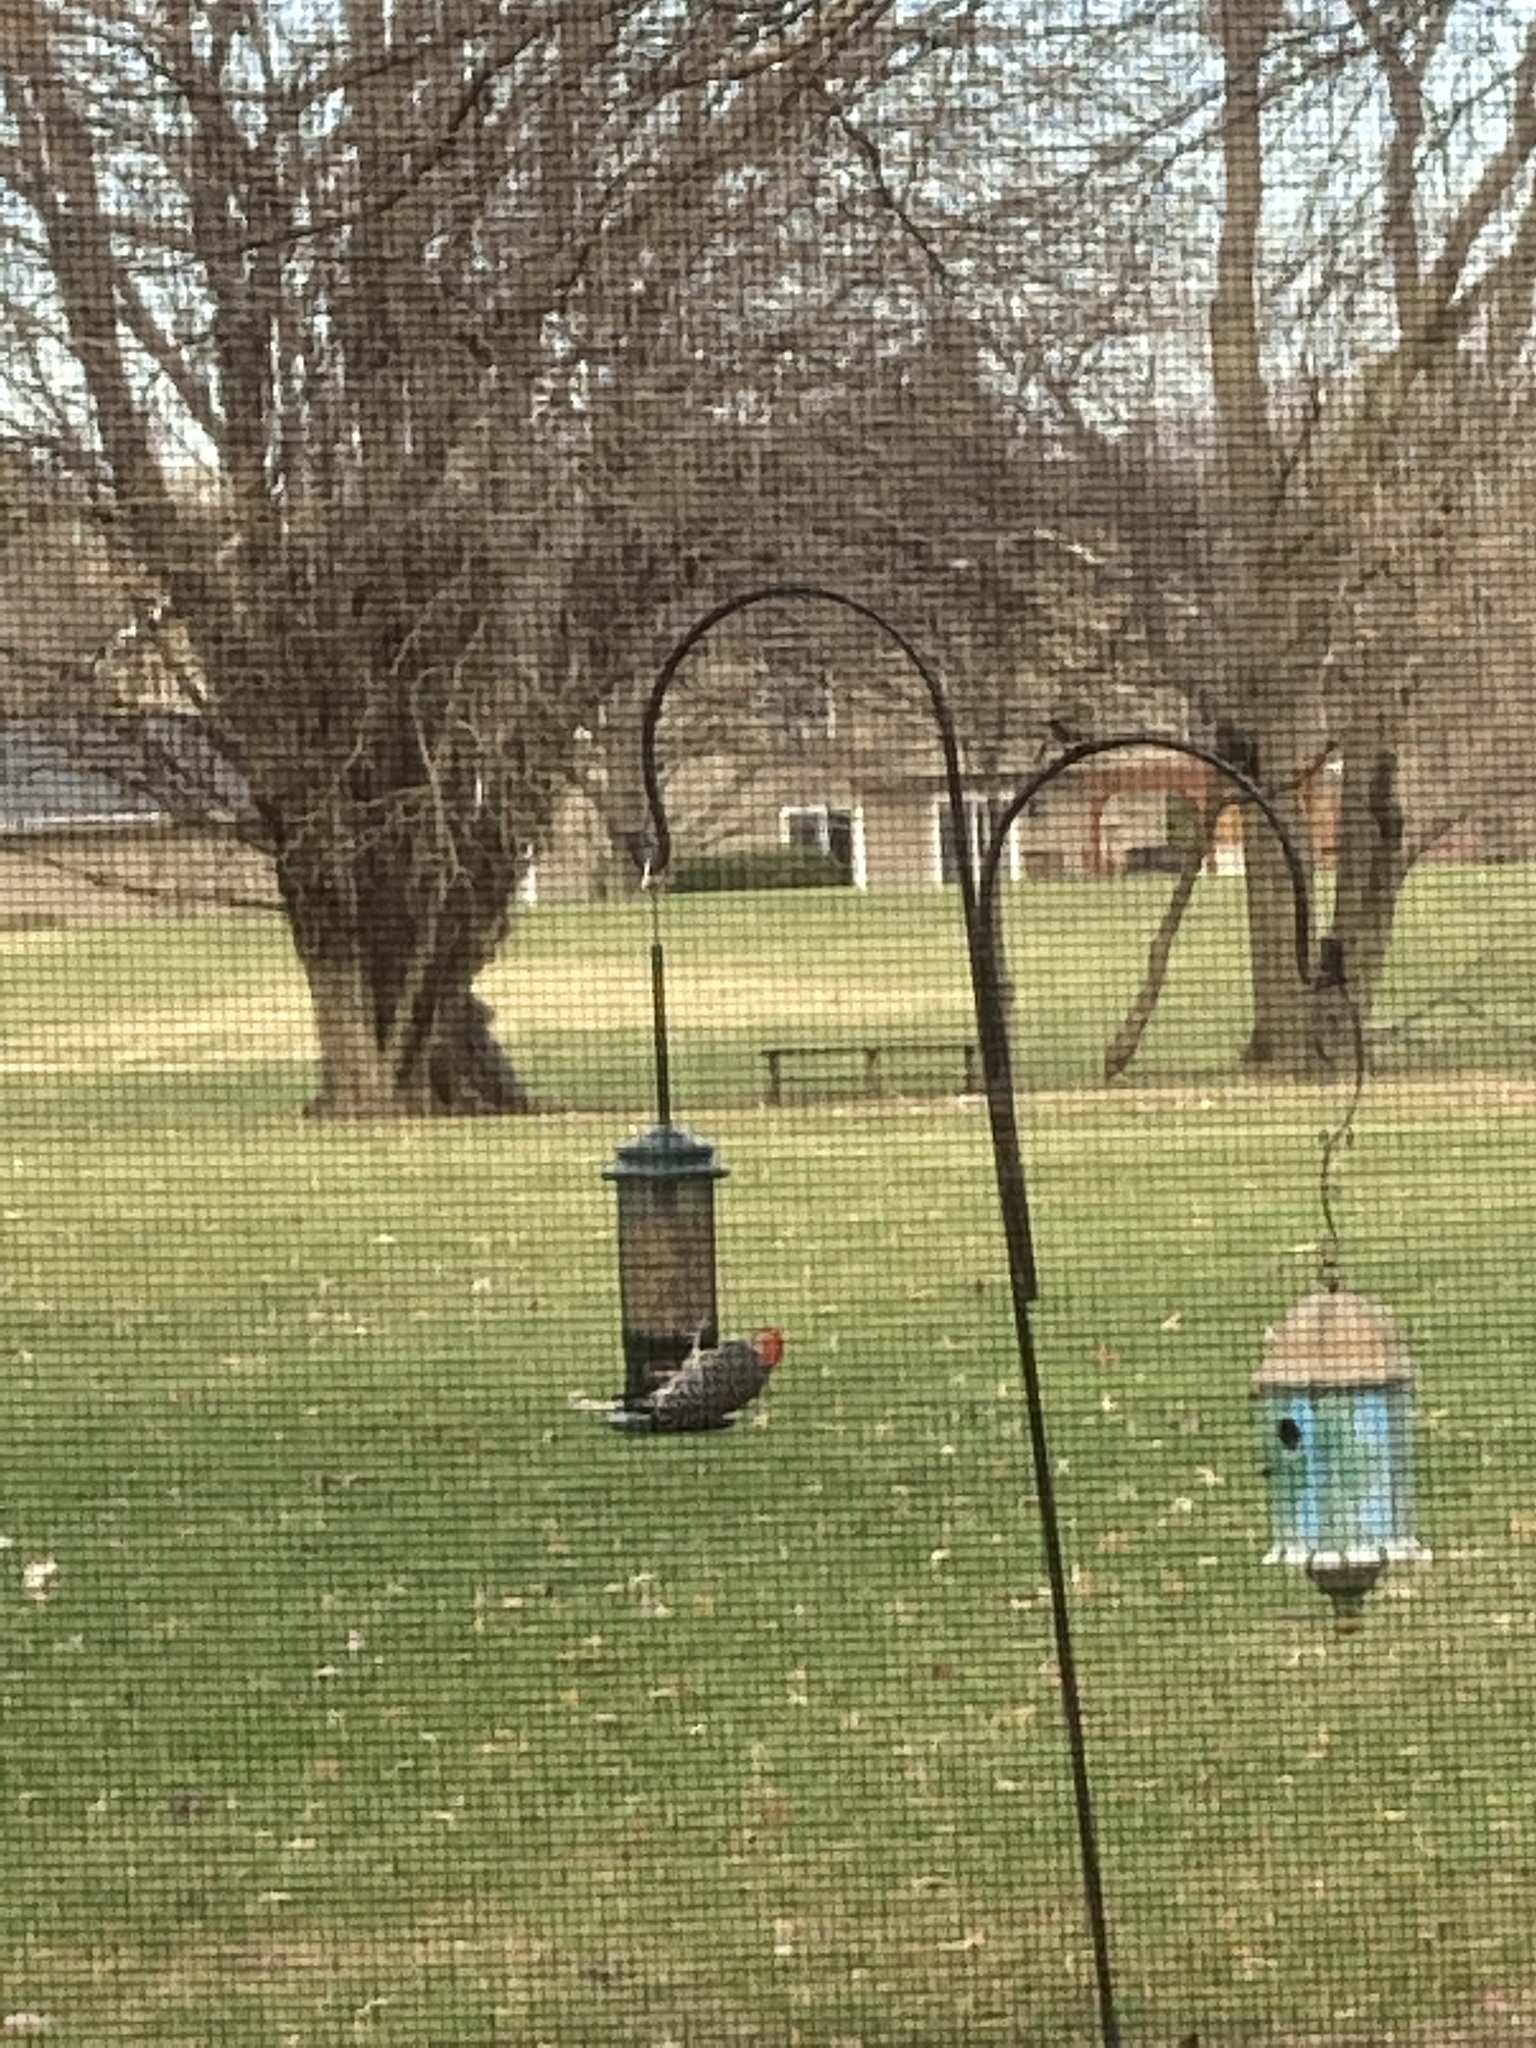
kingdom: Animalia
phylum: Chordata
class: Aves
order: Piciformes
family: Picidae
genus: Melanerpes
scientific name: Melanerpes carolinus
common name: Red-bellied woodpecker
